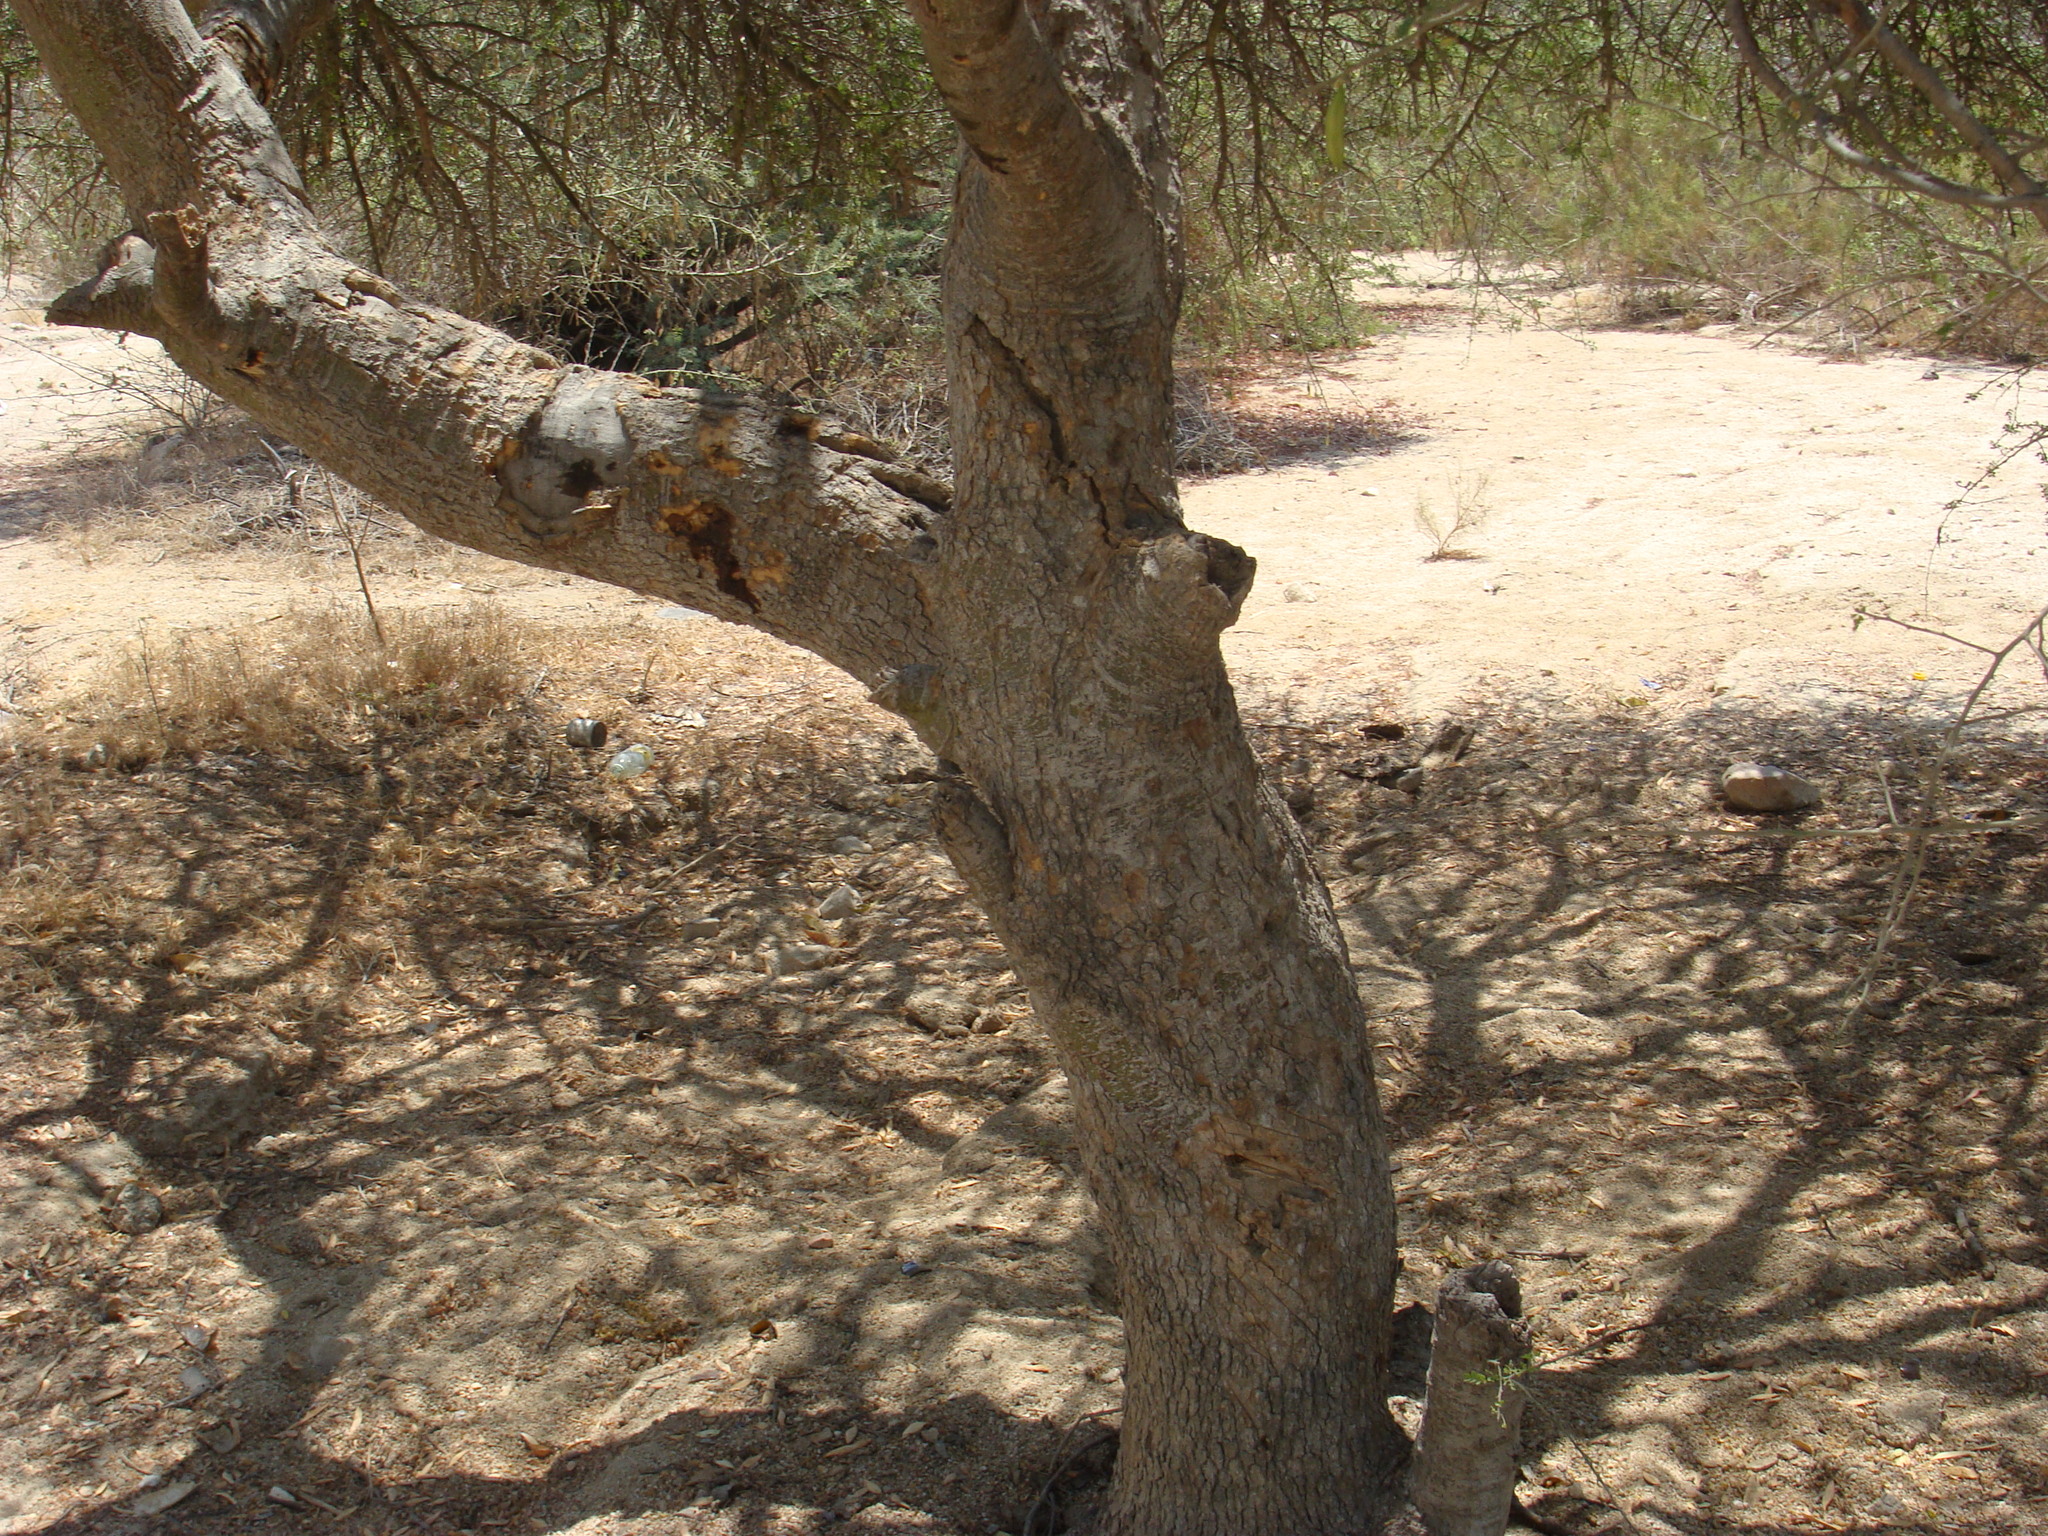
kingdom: Plantae
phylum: Tracheophyta
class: Magnoliopsida
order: Fabales
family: Fabaceae
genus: Parkinsonia
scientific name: Parkinsonia florida
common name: Blue paloverde
